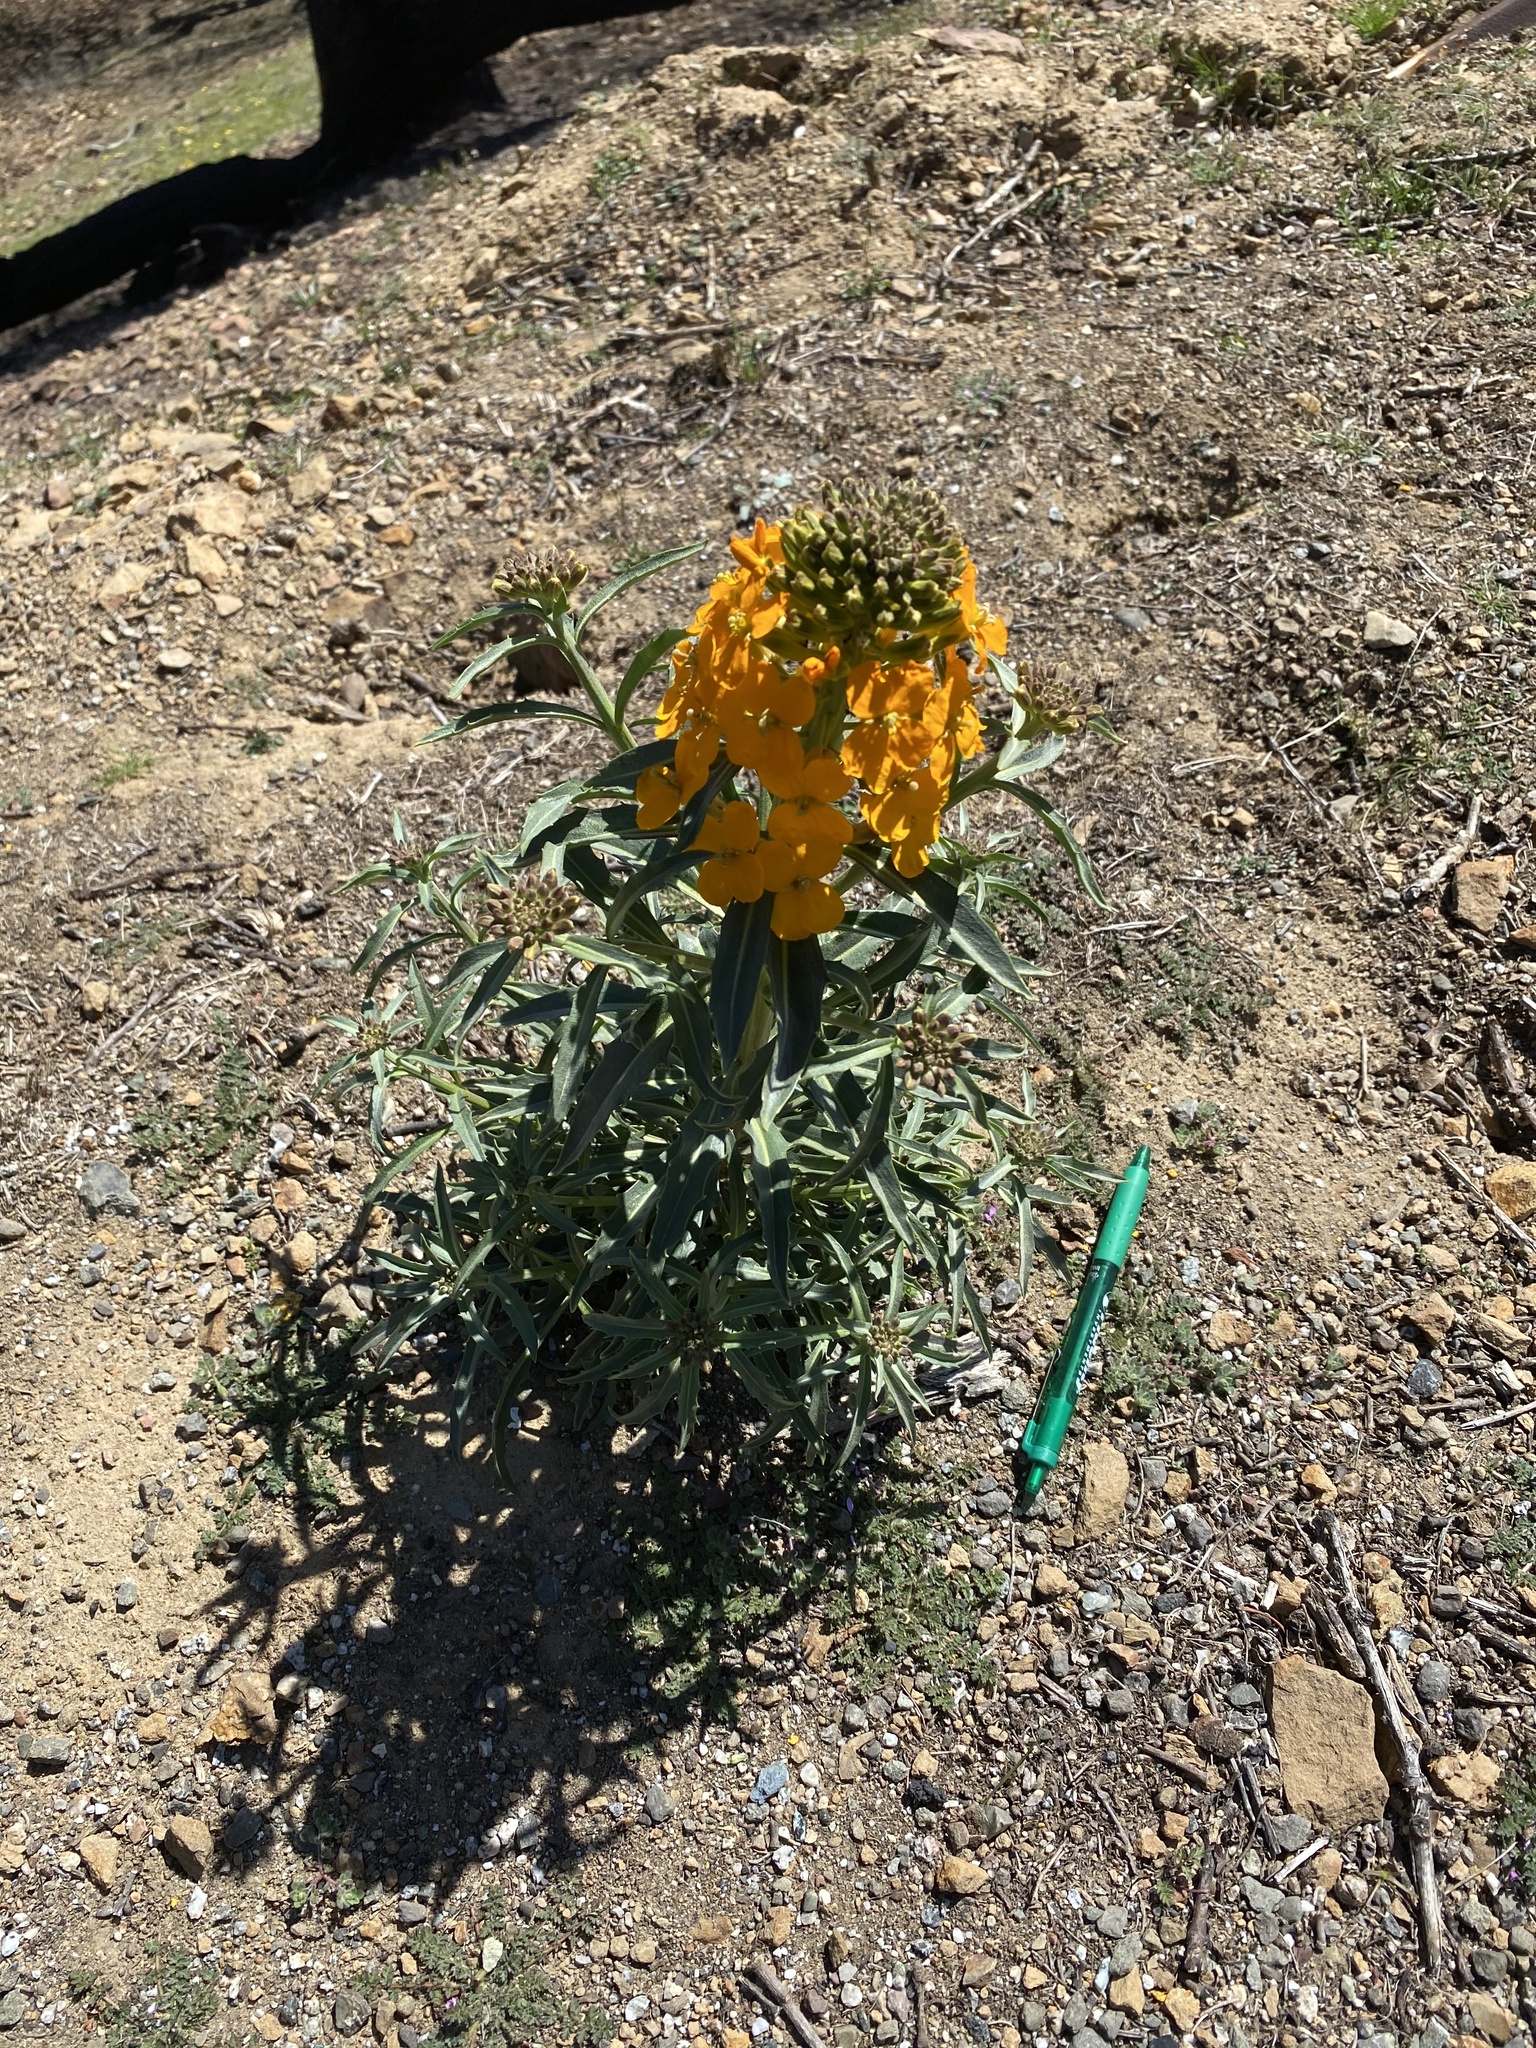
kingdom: Plantae
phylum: Tracheophyta
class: Magnoliopsida
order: Brassicales
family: Brassicaceae
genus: Erysimum
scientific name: Erysimum capitatum
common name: Western wallflower
